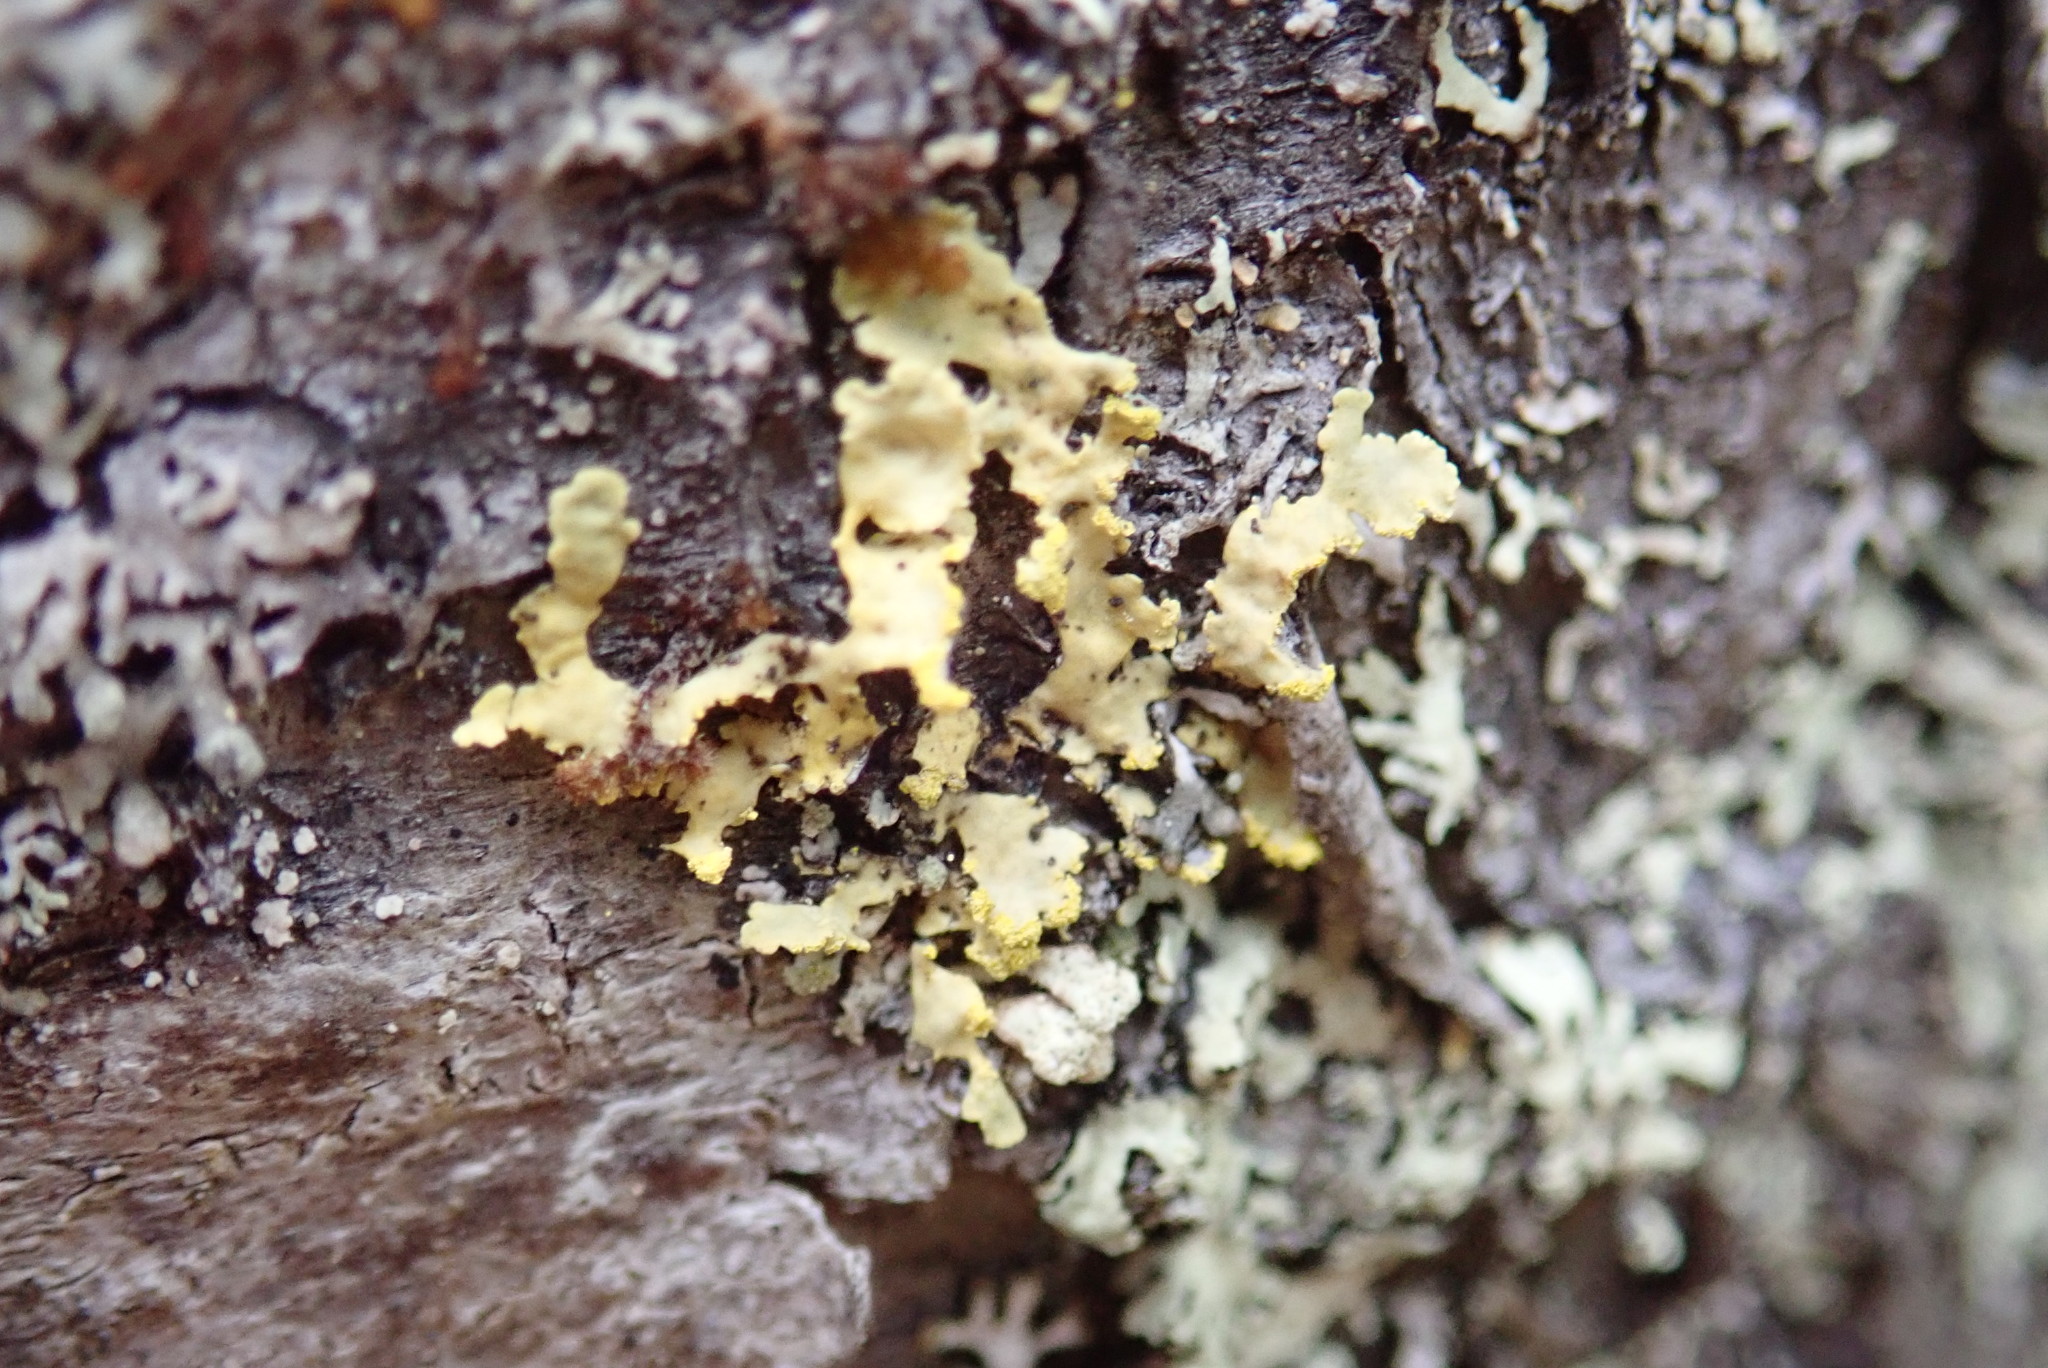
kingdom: Fungi
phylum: Ascomycota
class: Lecanoromycetes
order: Lecanorales
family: Parmeliaceae
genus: Vulpicida
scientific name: Vulpicida pinastri
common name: Powdered sunshine lichen
